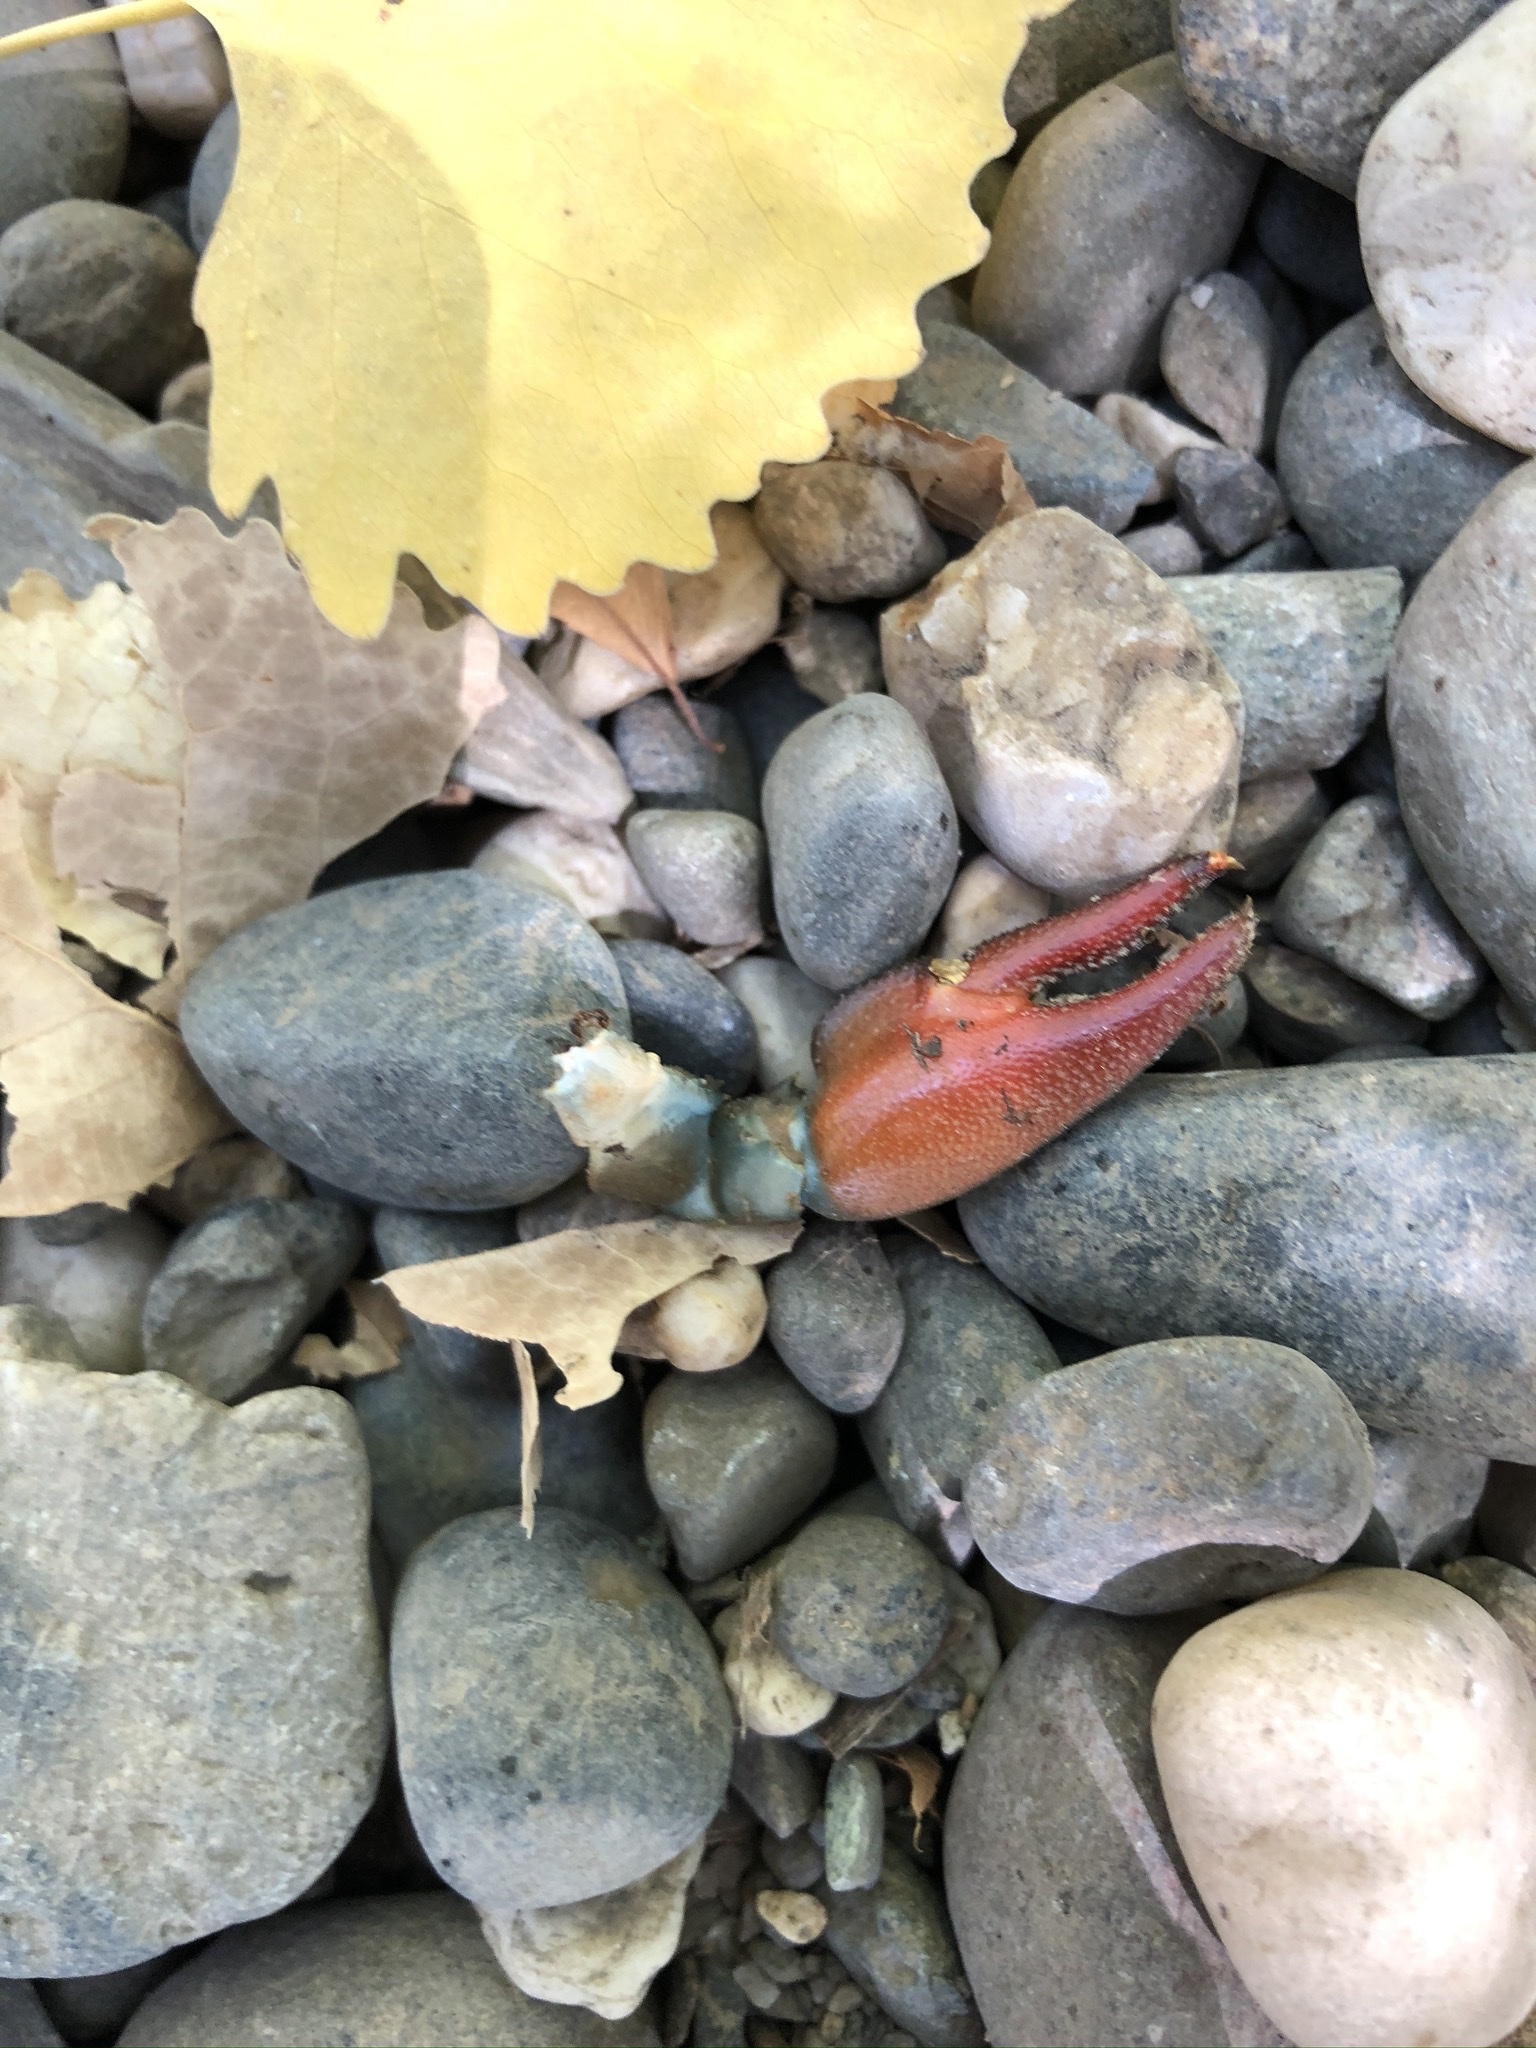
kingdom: Animalia
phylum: Arthropoda
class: Malacostraca
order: Decapoda
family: Astacidae
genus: Pacifastacus
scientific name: Pacifastacus leniusculus
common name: Signal crayfish
